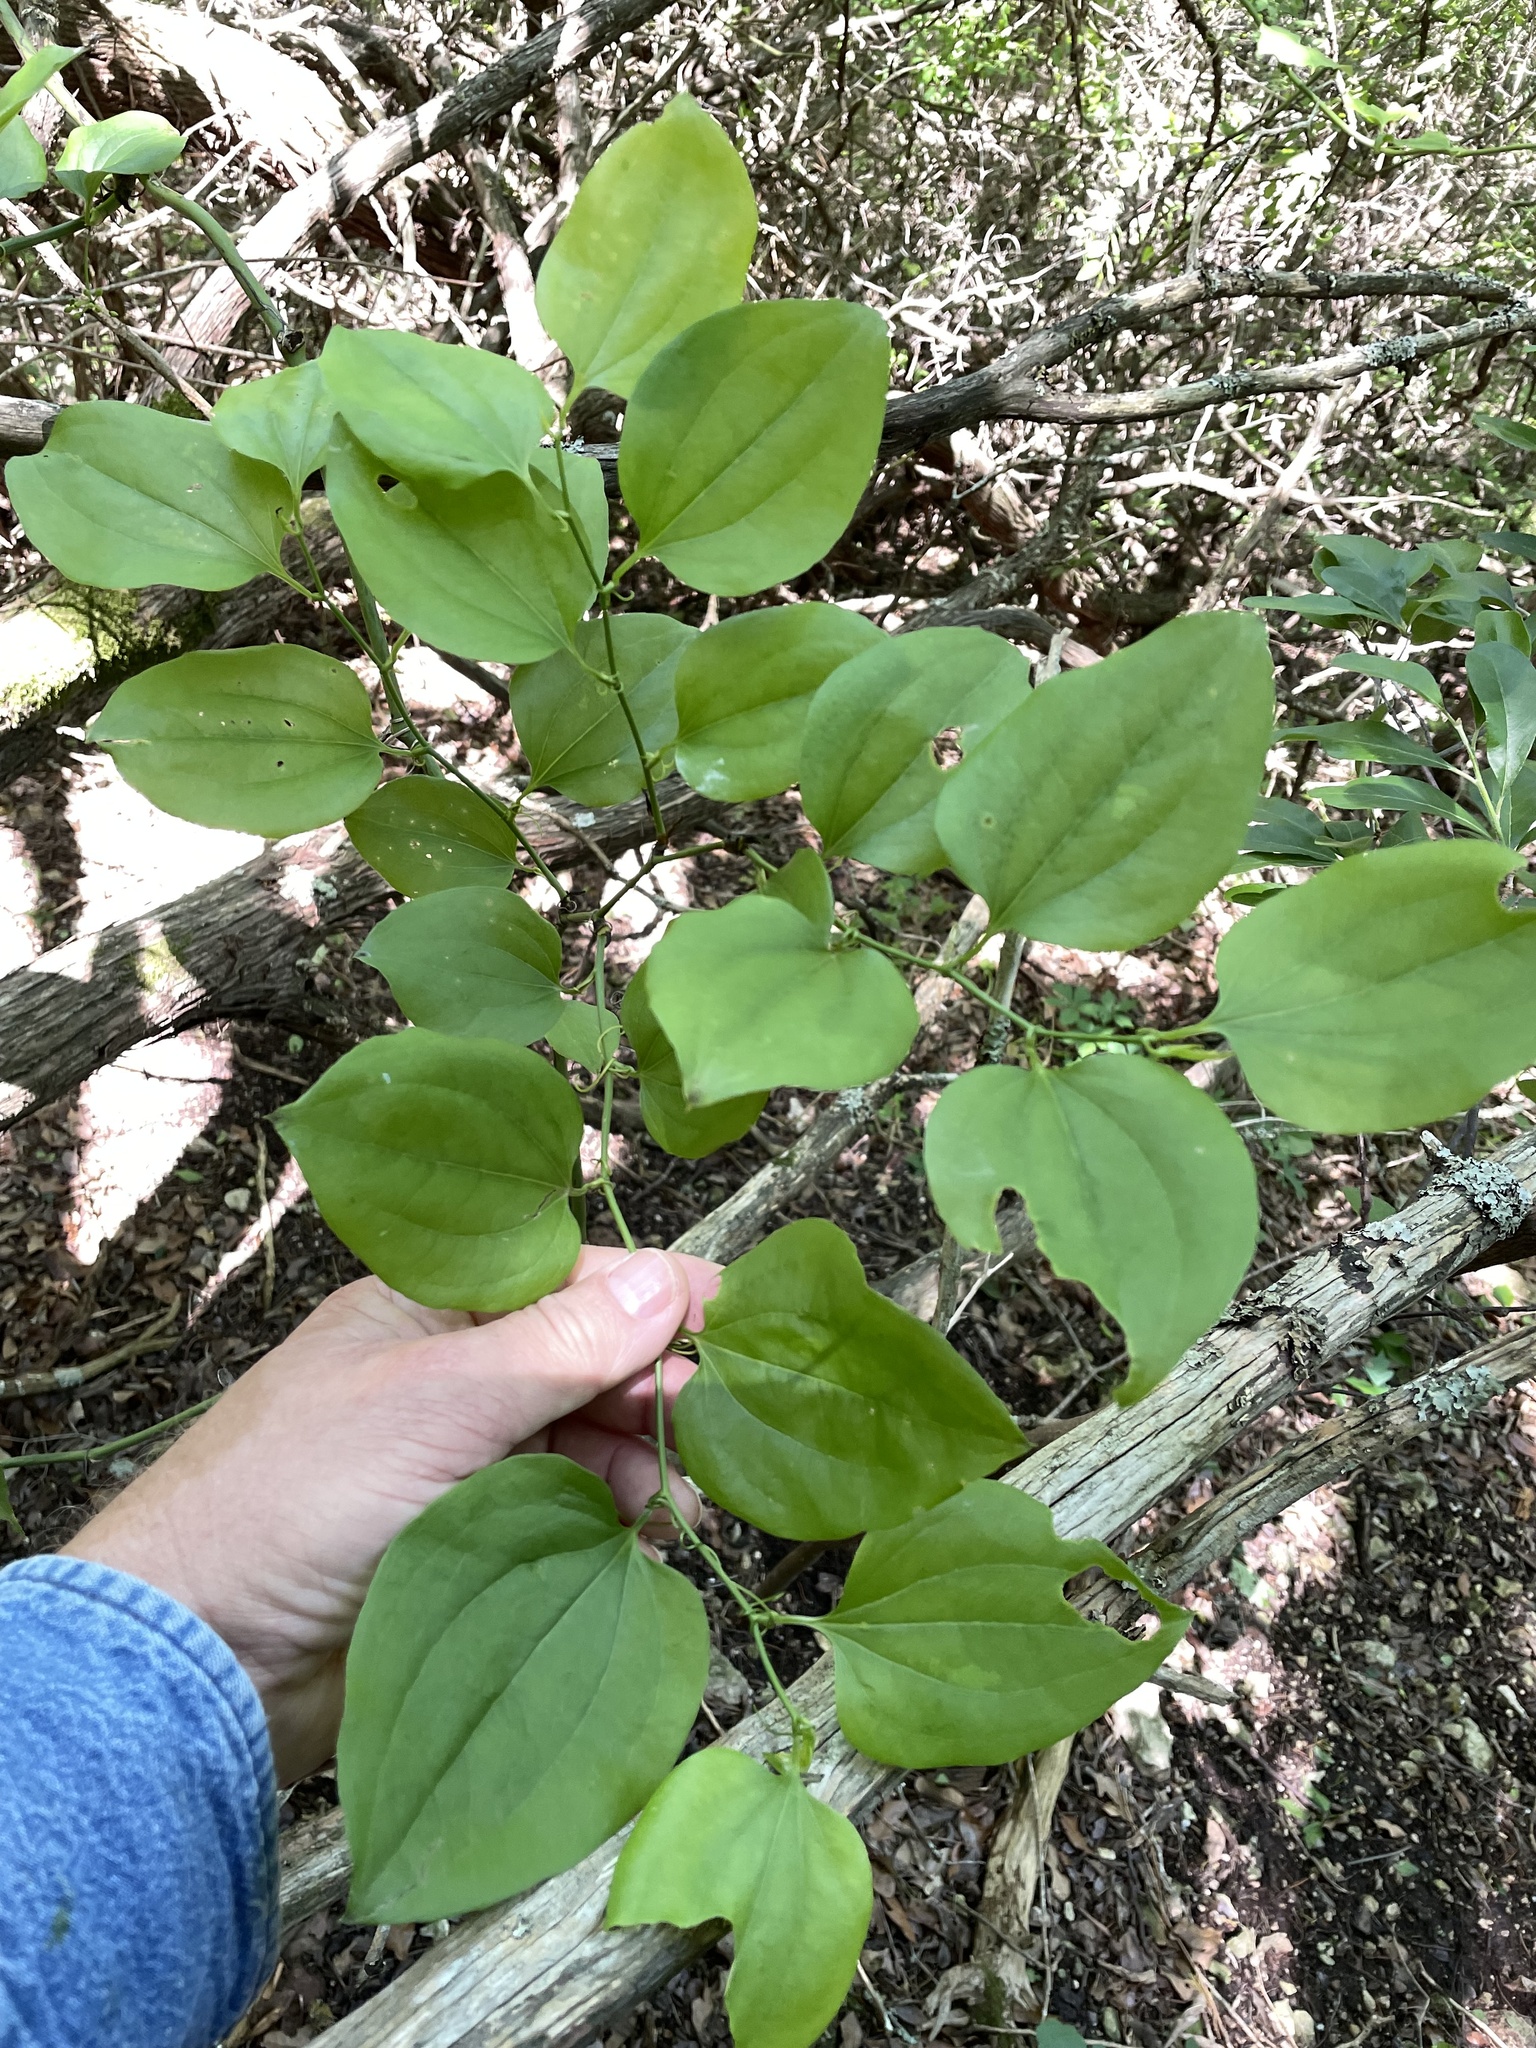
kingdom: Plantae
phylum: Tracheophyta
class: Liliopsida
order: Liliales
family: Smilacaceae
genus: Smilax
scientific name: Smilax rotundifolia
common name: Bullbriar
